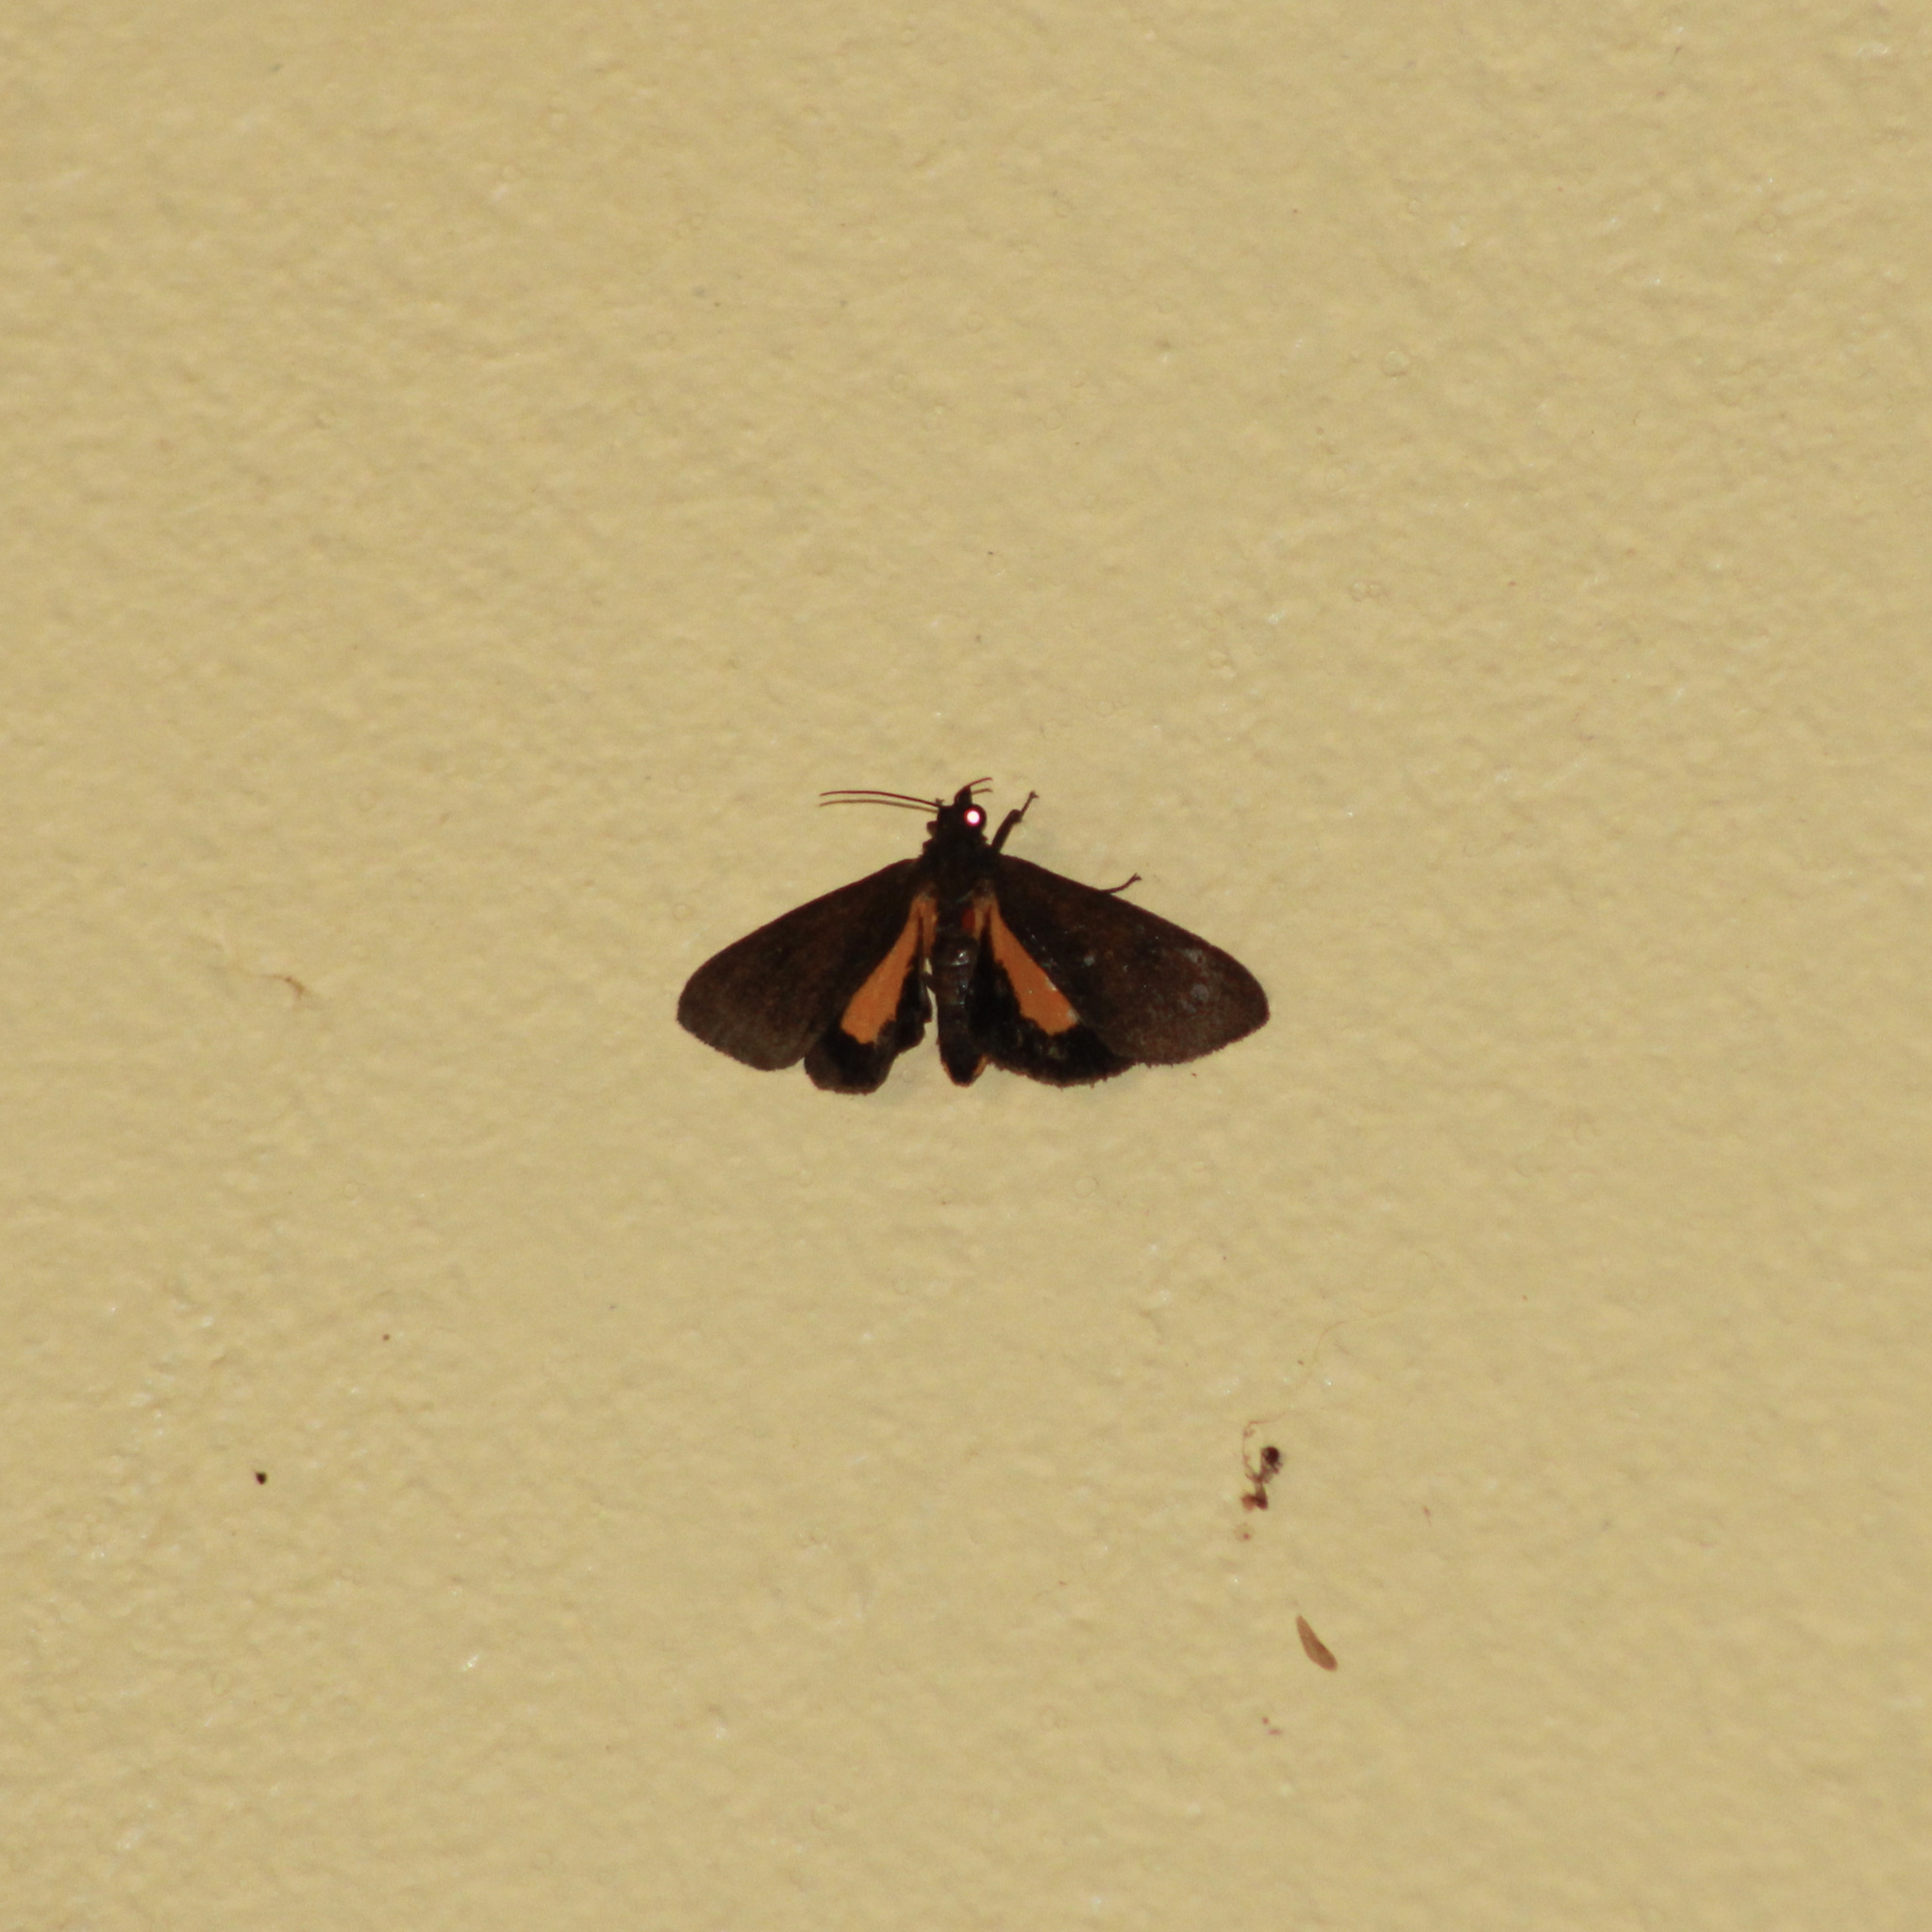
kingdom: Animalia
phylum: Arthropoda
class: Insecta
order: Lepidoptera
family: Erebidae
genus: Virbia
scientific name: Virbia medarda
